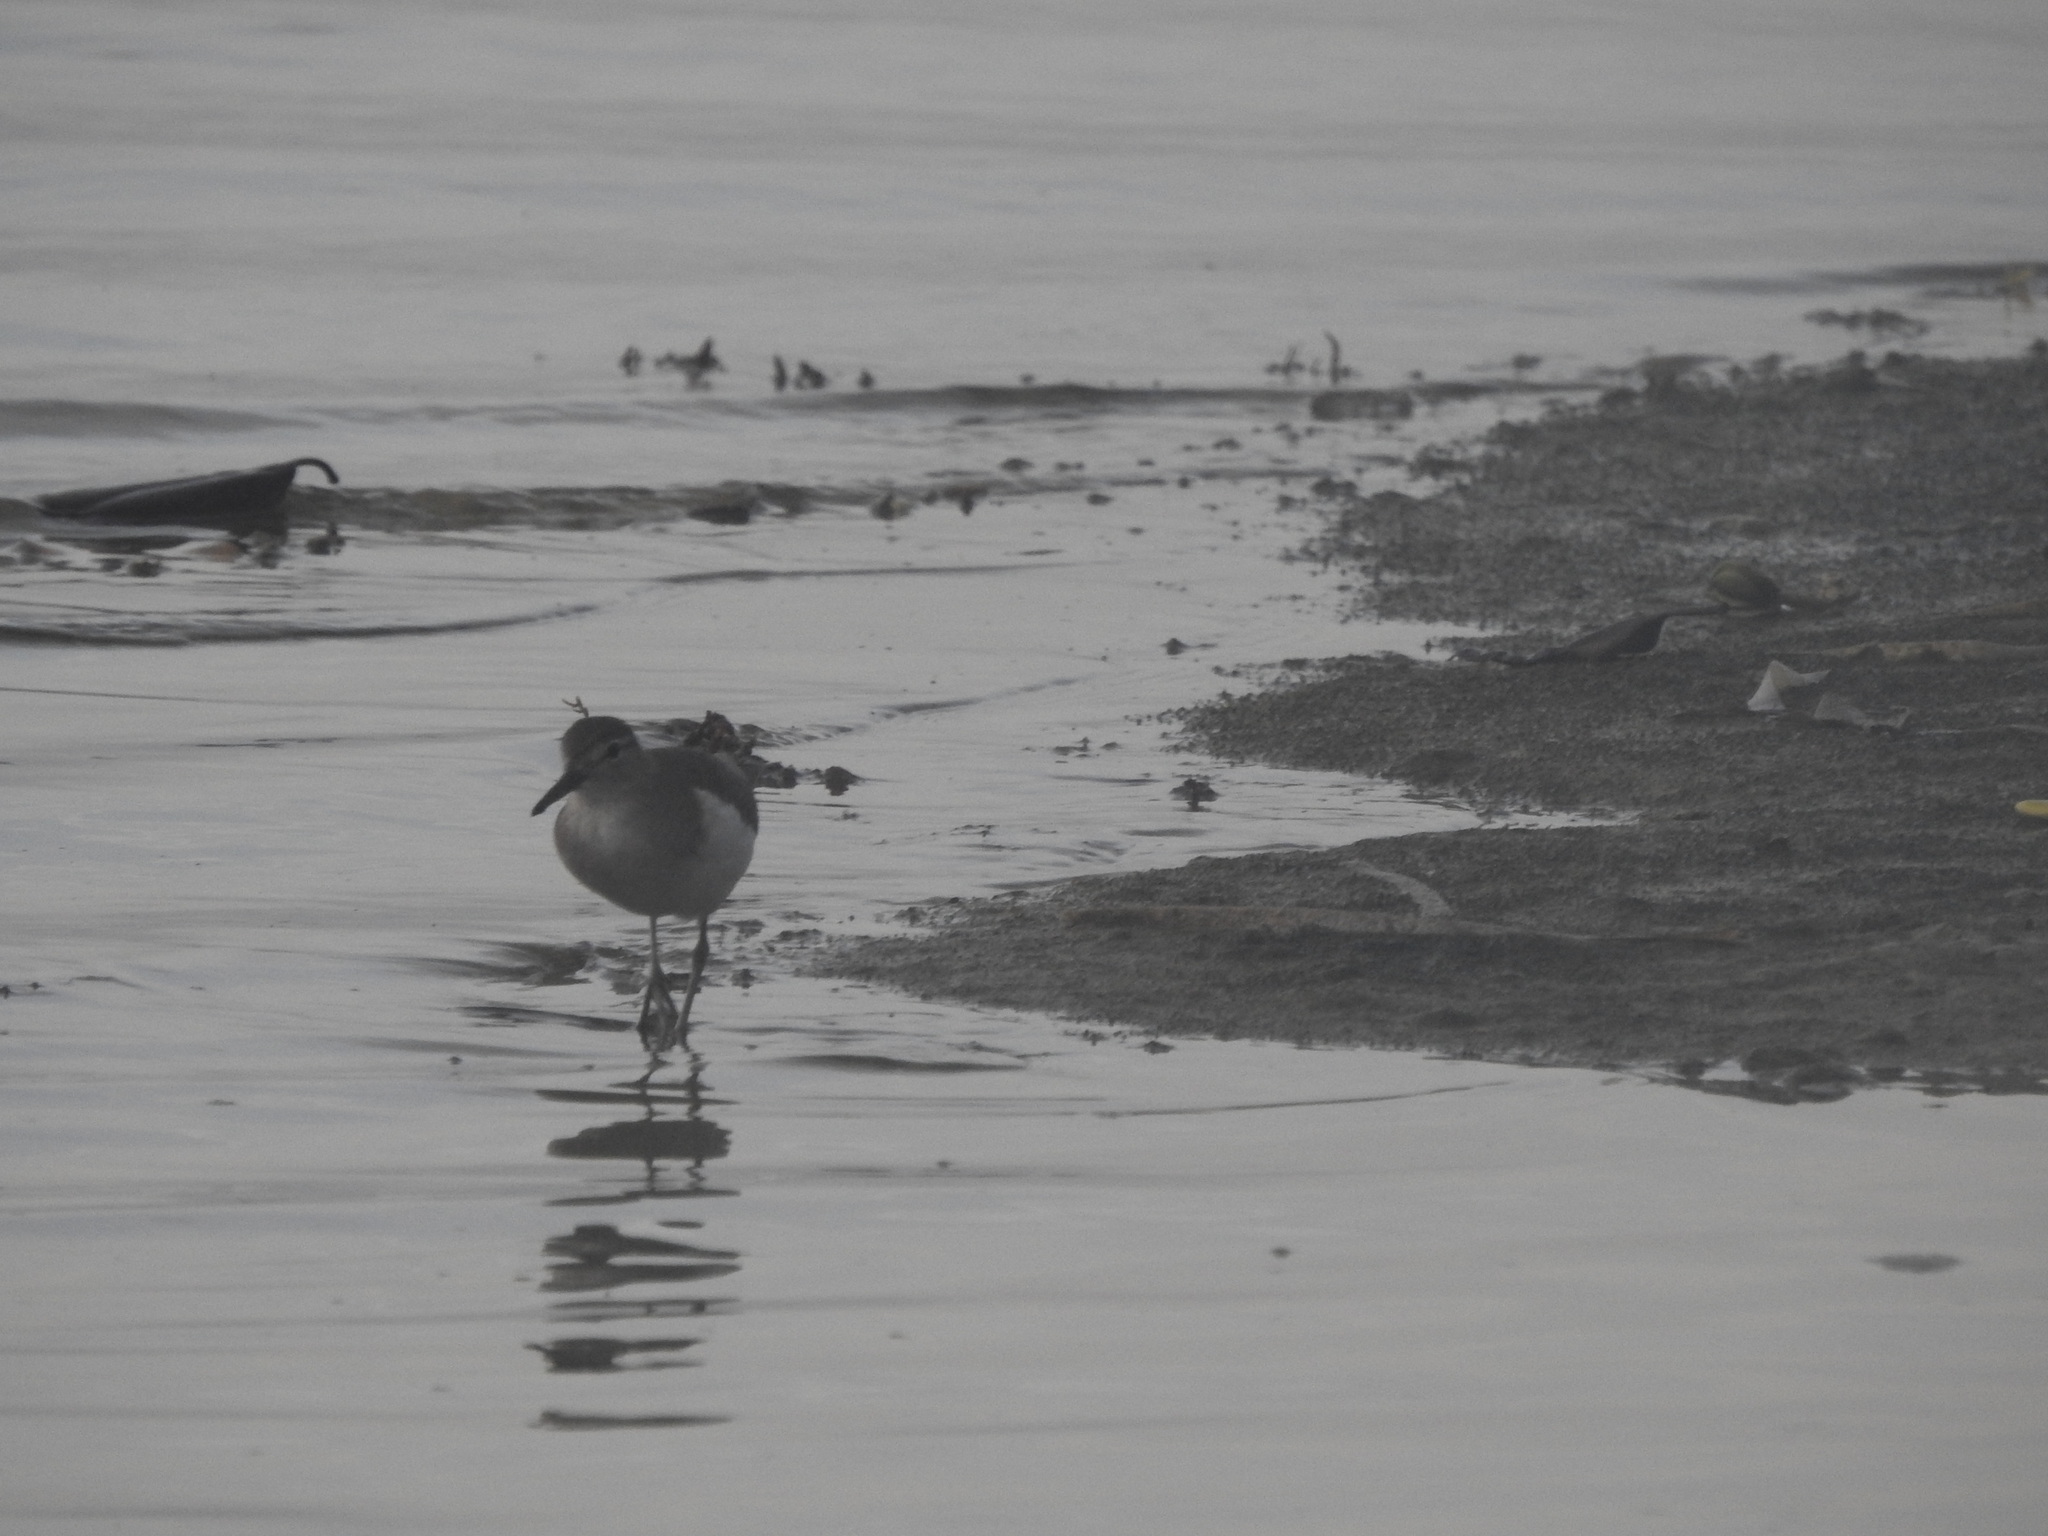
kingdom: Animalia
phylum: Chordata
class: Aves
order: Charadriiformes
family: Scolopacidae
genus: Actitis
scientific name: Actitis macularius
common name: Spotted sandpiper
